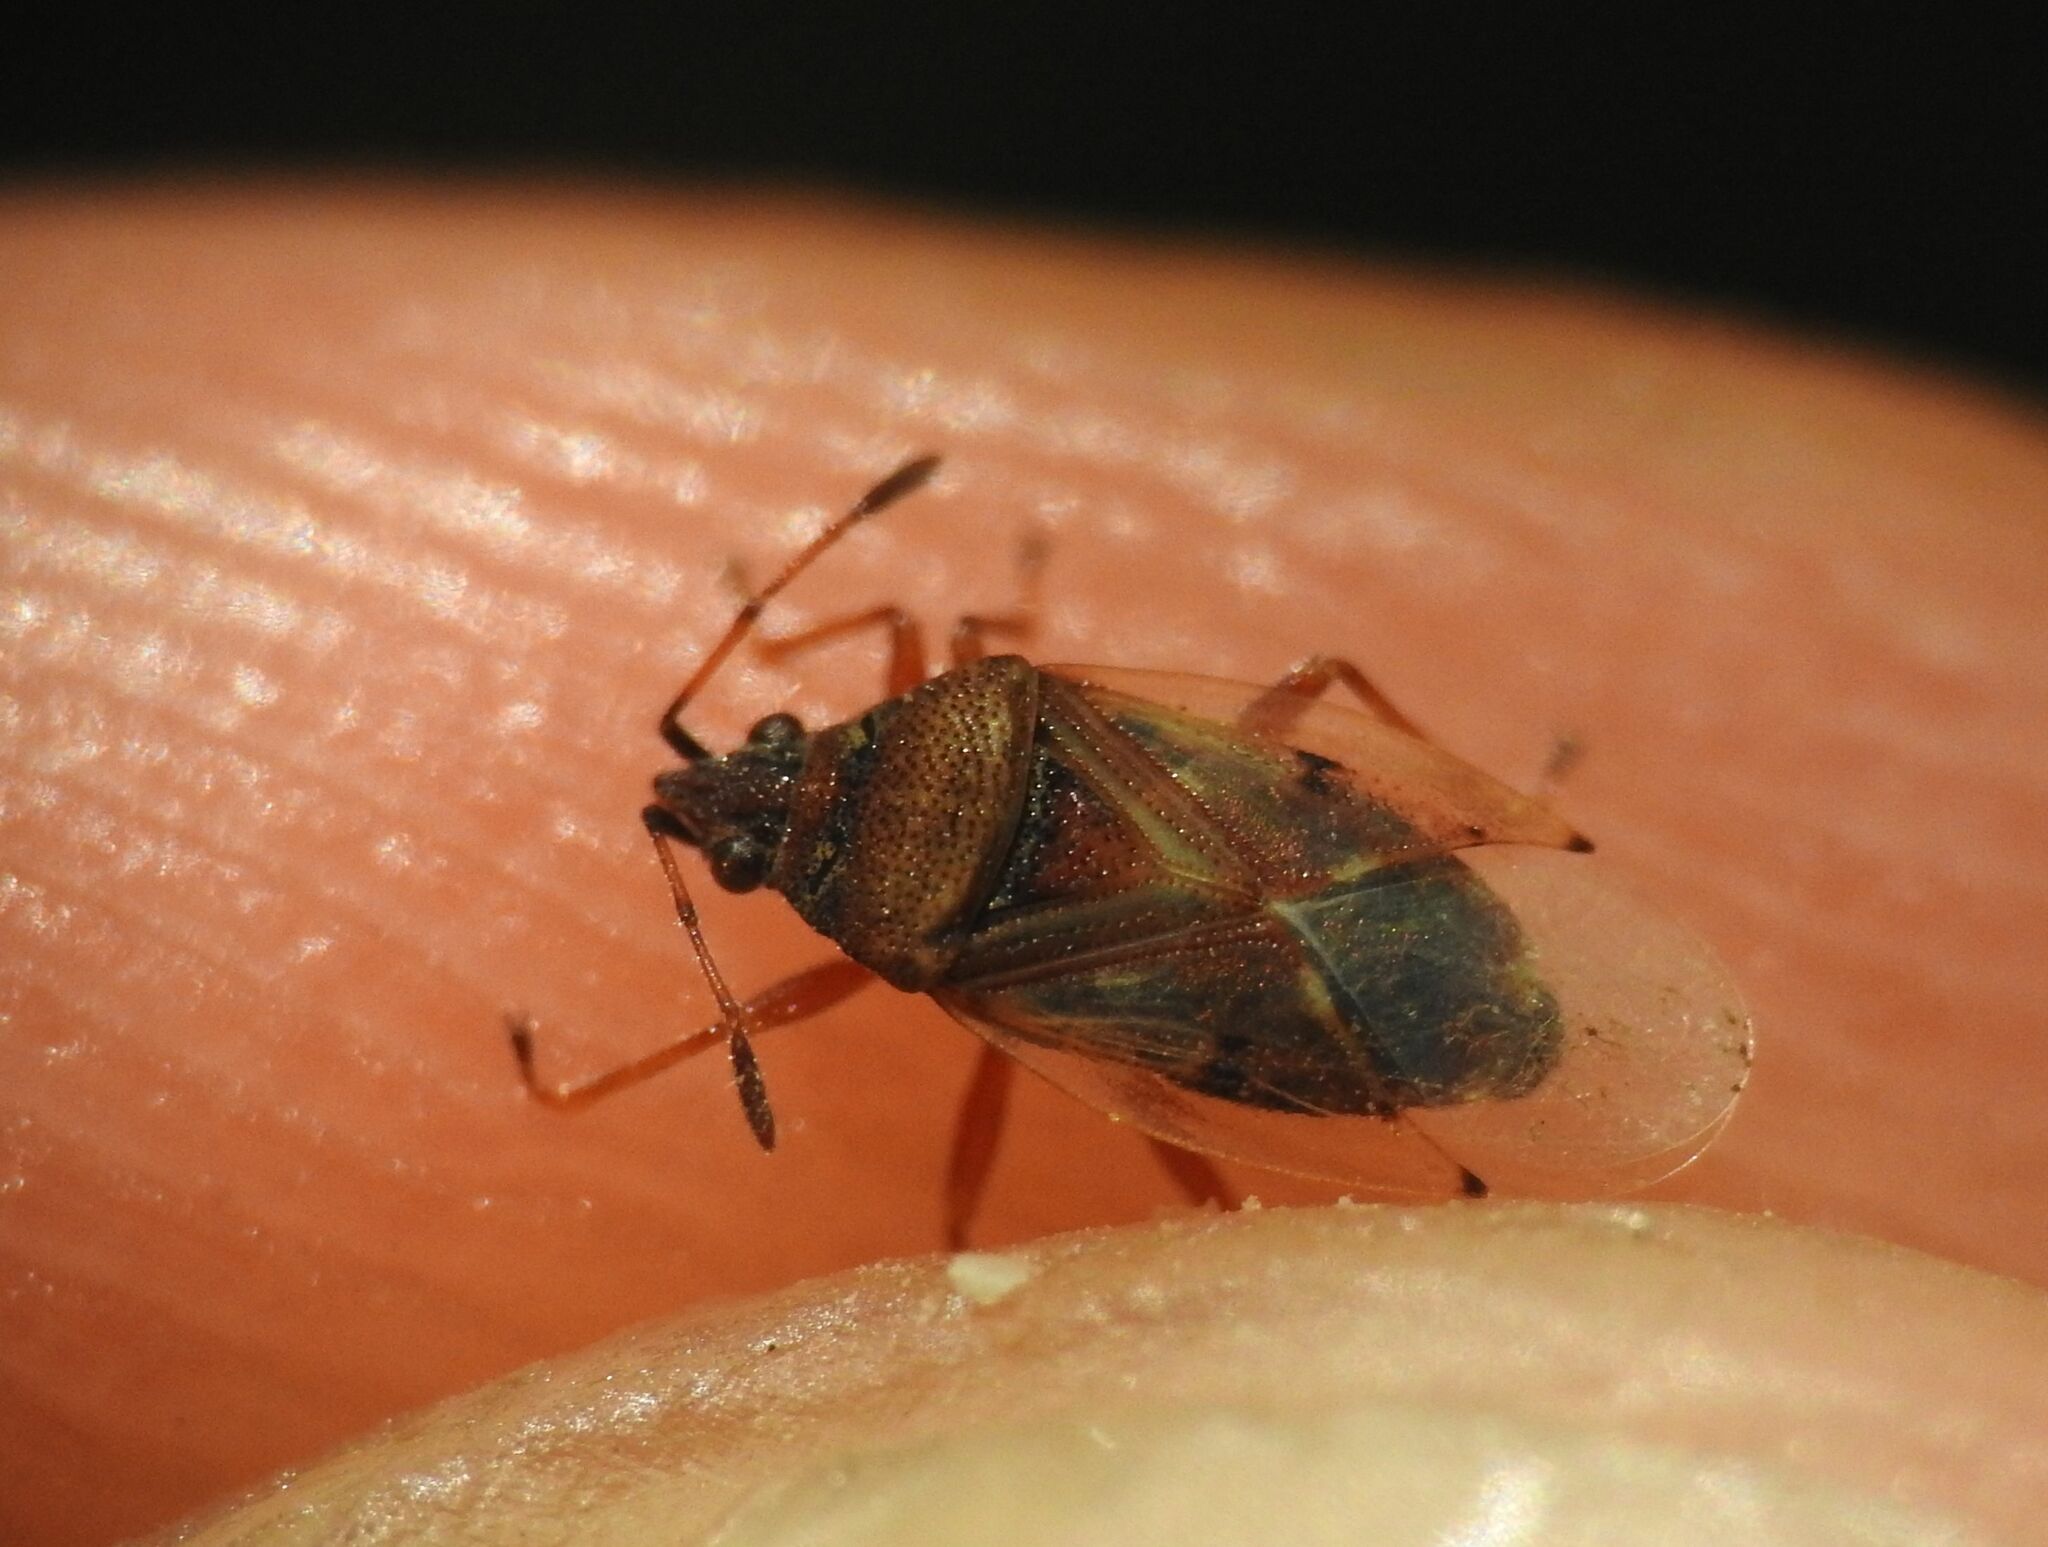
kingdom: Animalia
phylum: Arthropoda
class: Insecta
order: Hemiptera
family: Lygaeidae
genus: Kleidocerys
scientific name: Kleidocerys resedae
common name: Birch catkin bug
